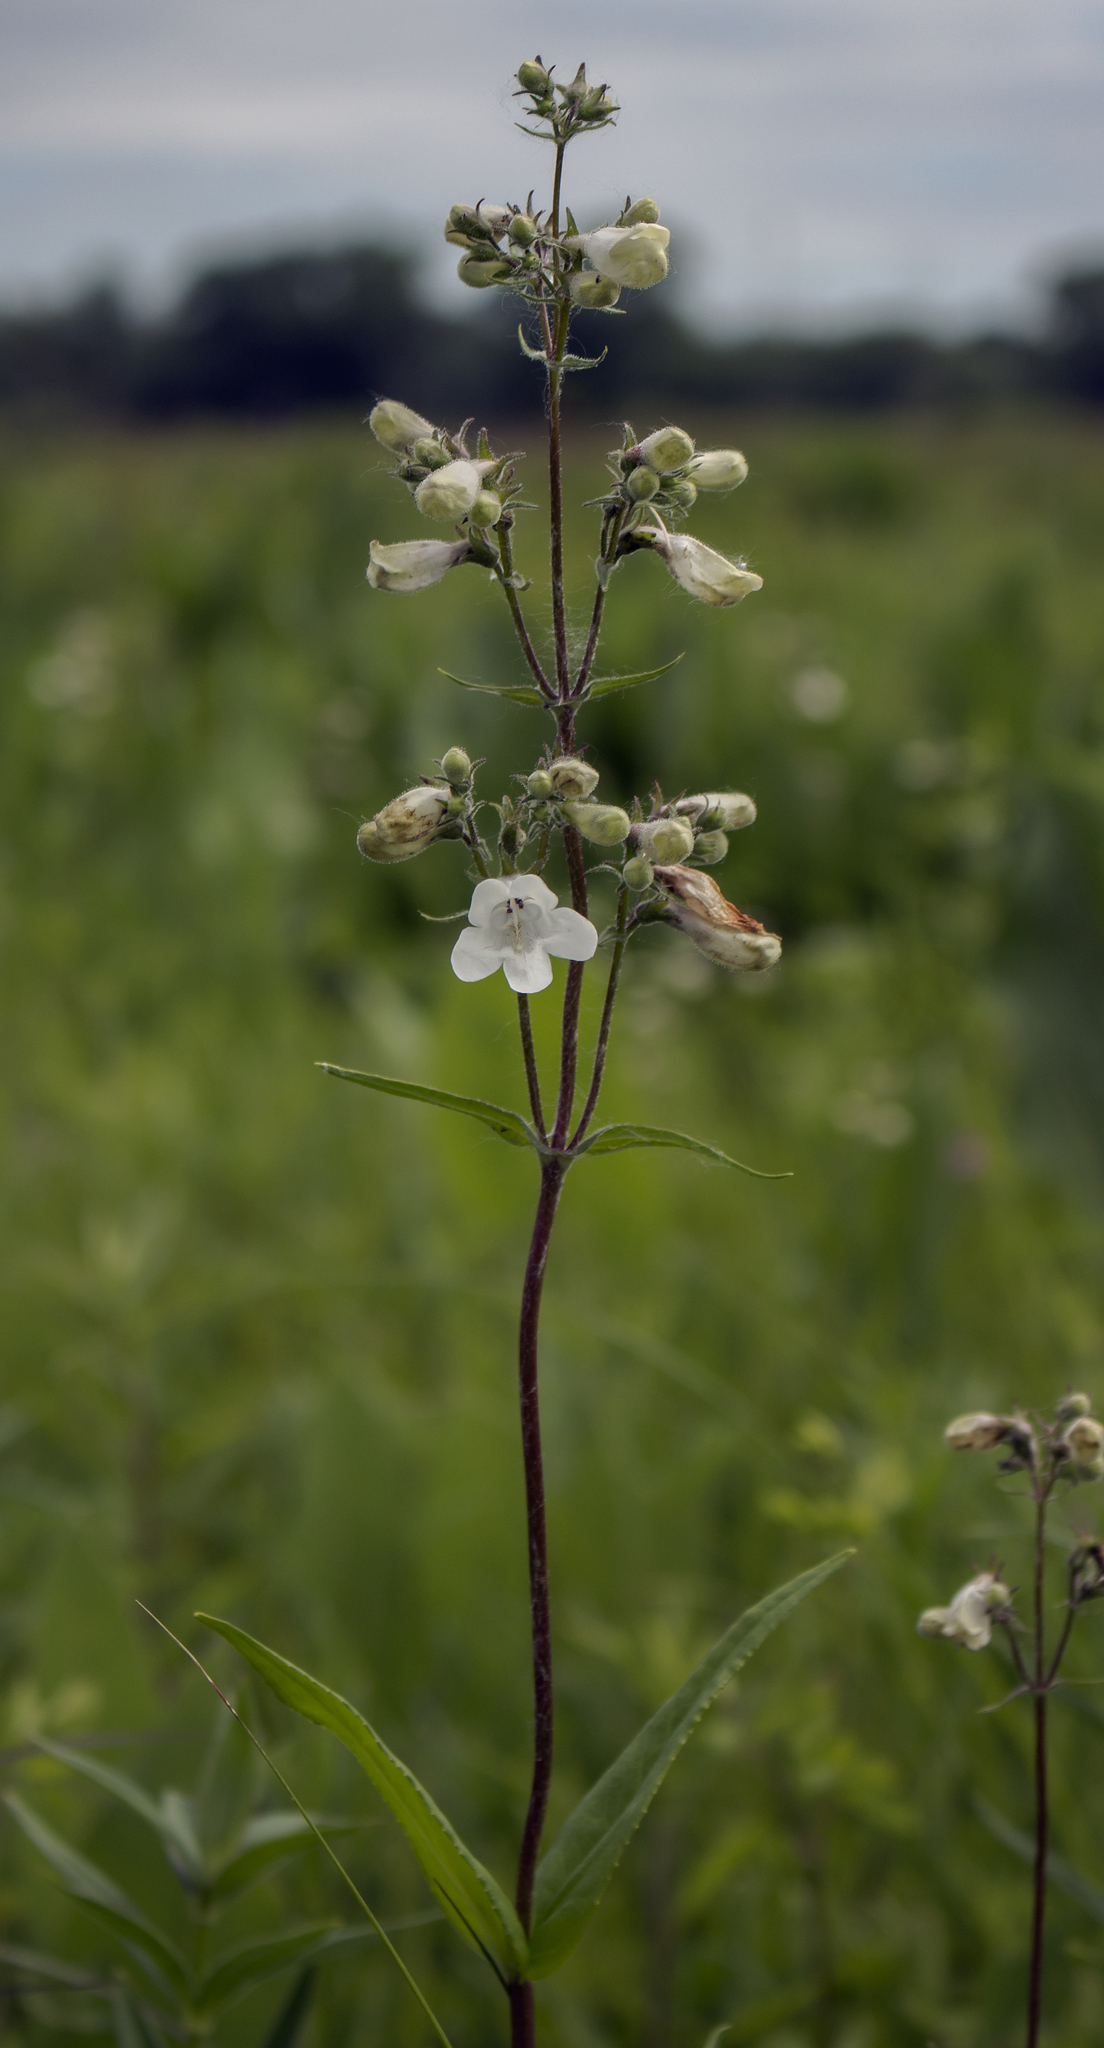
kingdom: Plantae
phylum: Tracheophyta
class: Magnoliopsida
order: Lamiales
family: Plantaginaceae
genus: Penstemon
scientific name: Penstemon digitalis
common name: Foxglove beardtongue
